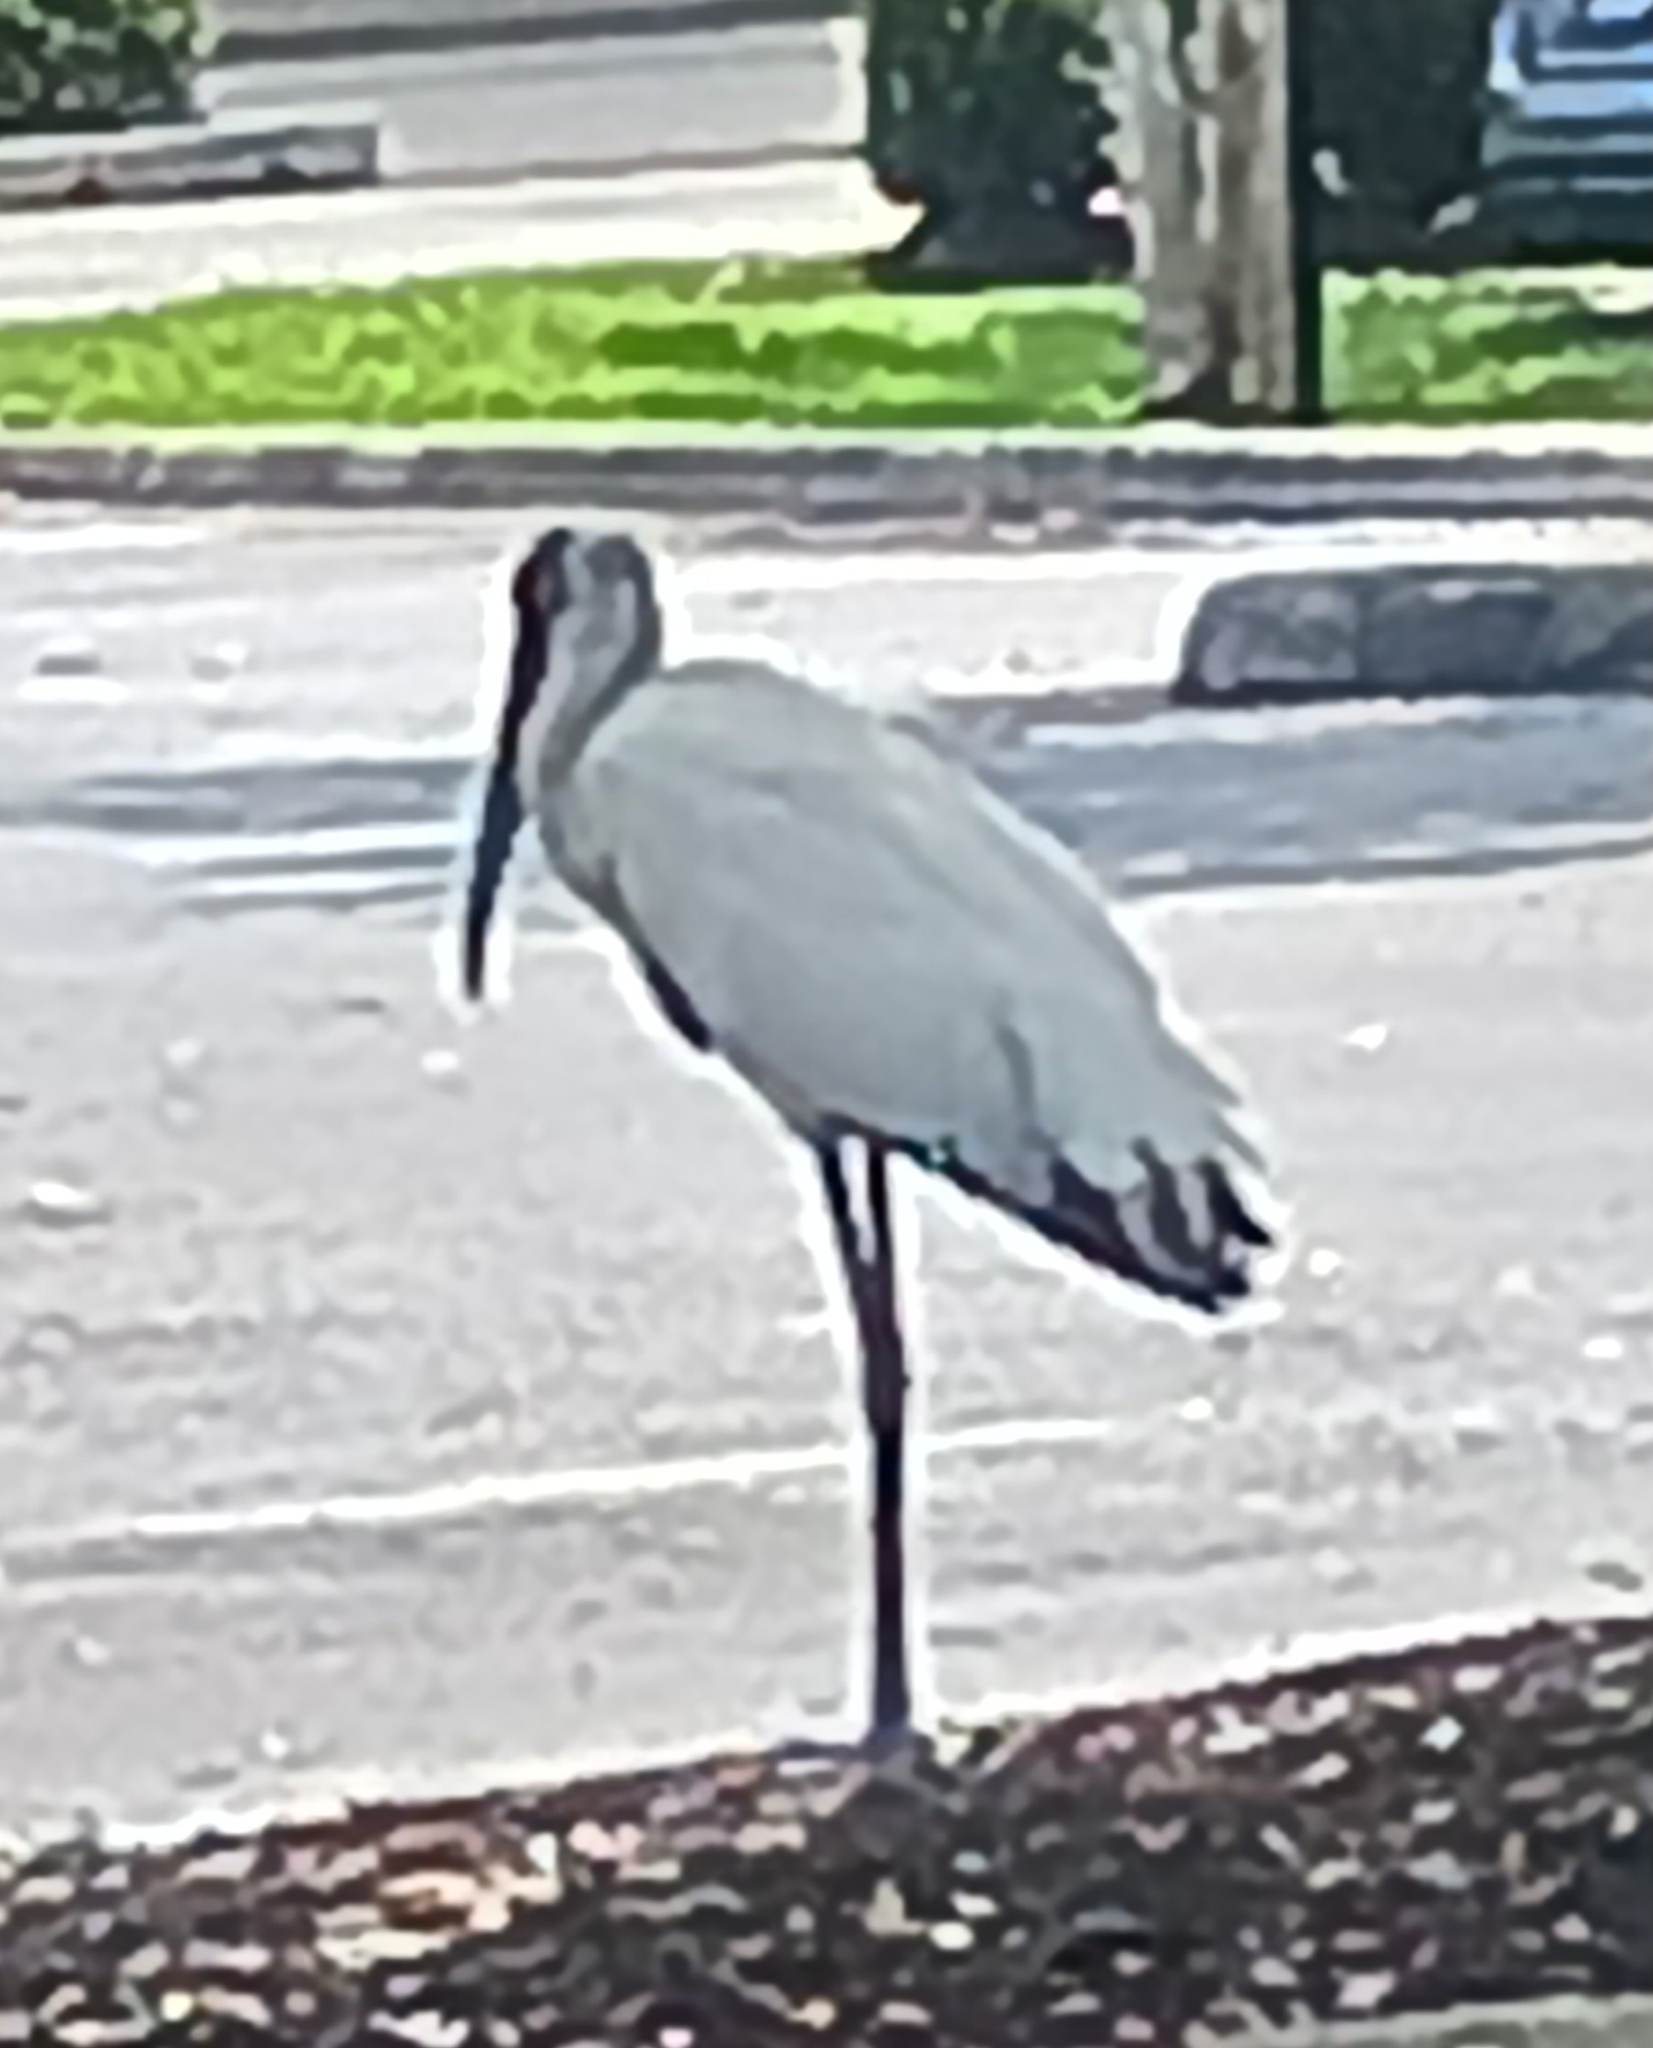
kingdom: Animalia
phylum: Chordata
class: Aves
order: Ciconiiformes
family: Ciconiidae
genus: Mycteria
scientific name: Mycteria americana
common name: Wood stork
